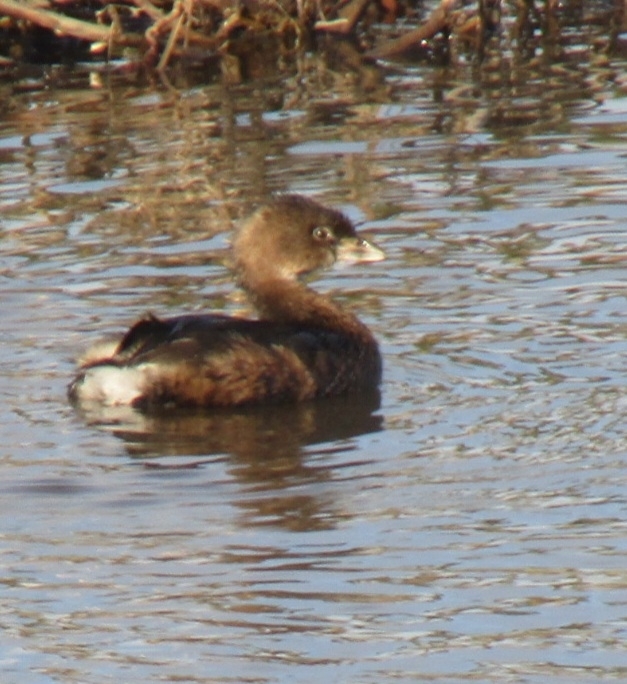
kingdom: Animalia
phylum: Chordata
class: Aves
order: Podicipediformes
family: Podicipedidae
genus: Podilymbus
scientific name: Podilymbus podiceps
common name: Pied-billed grebe
